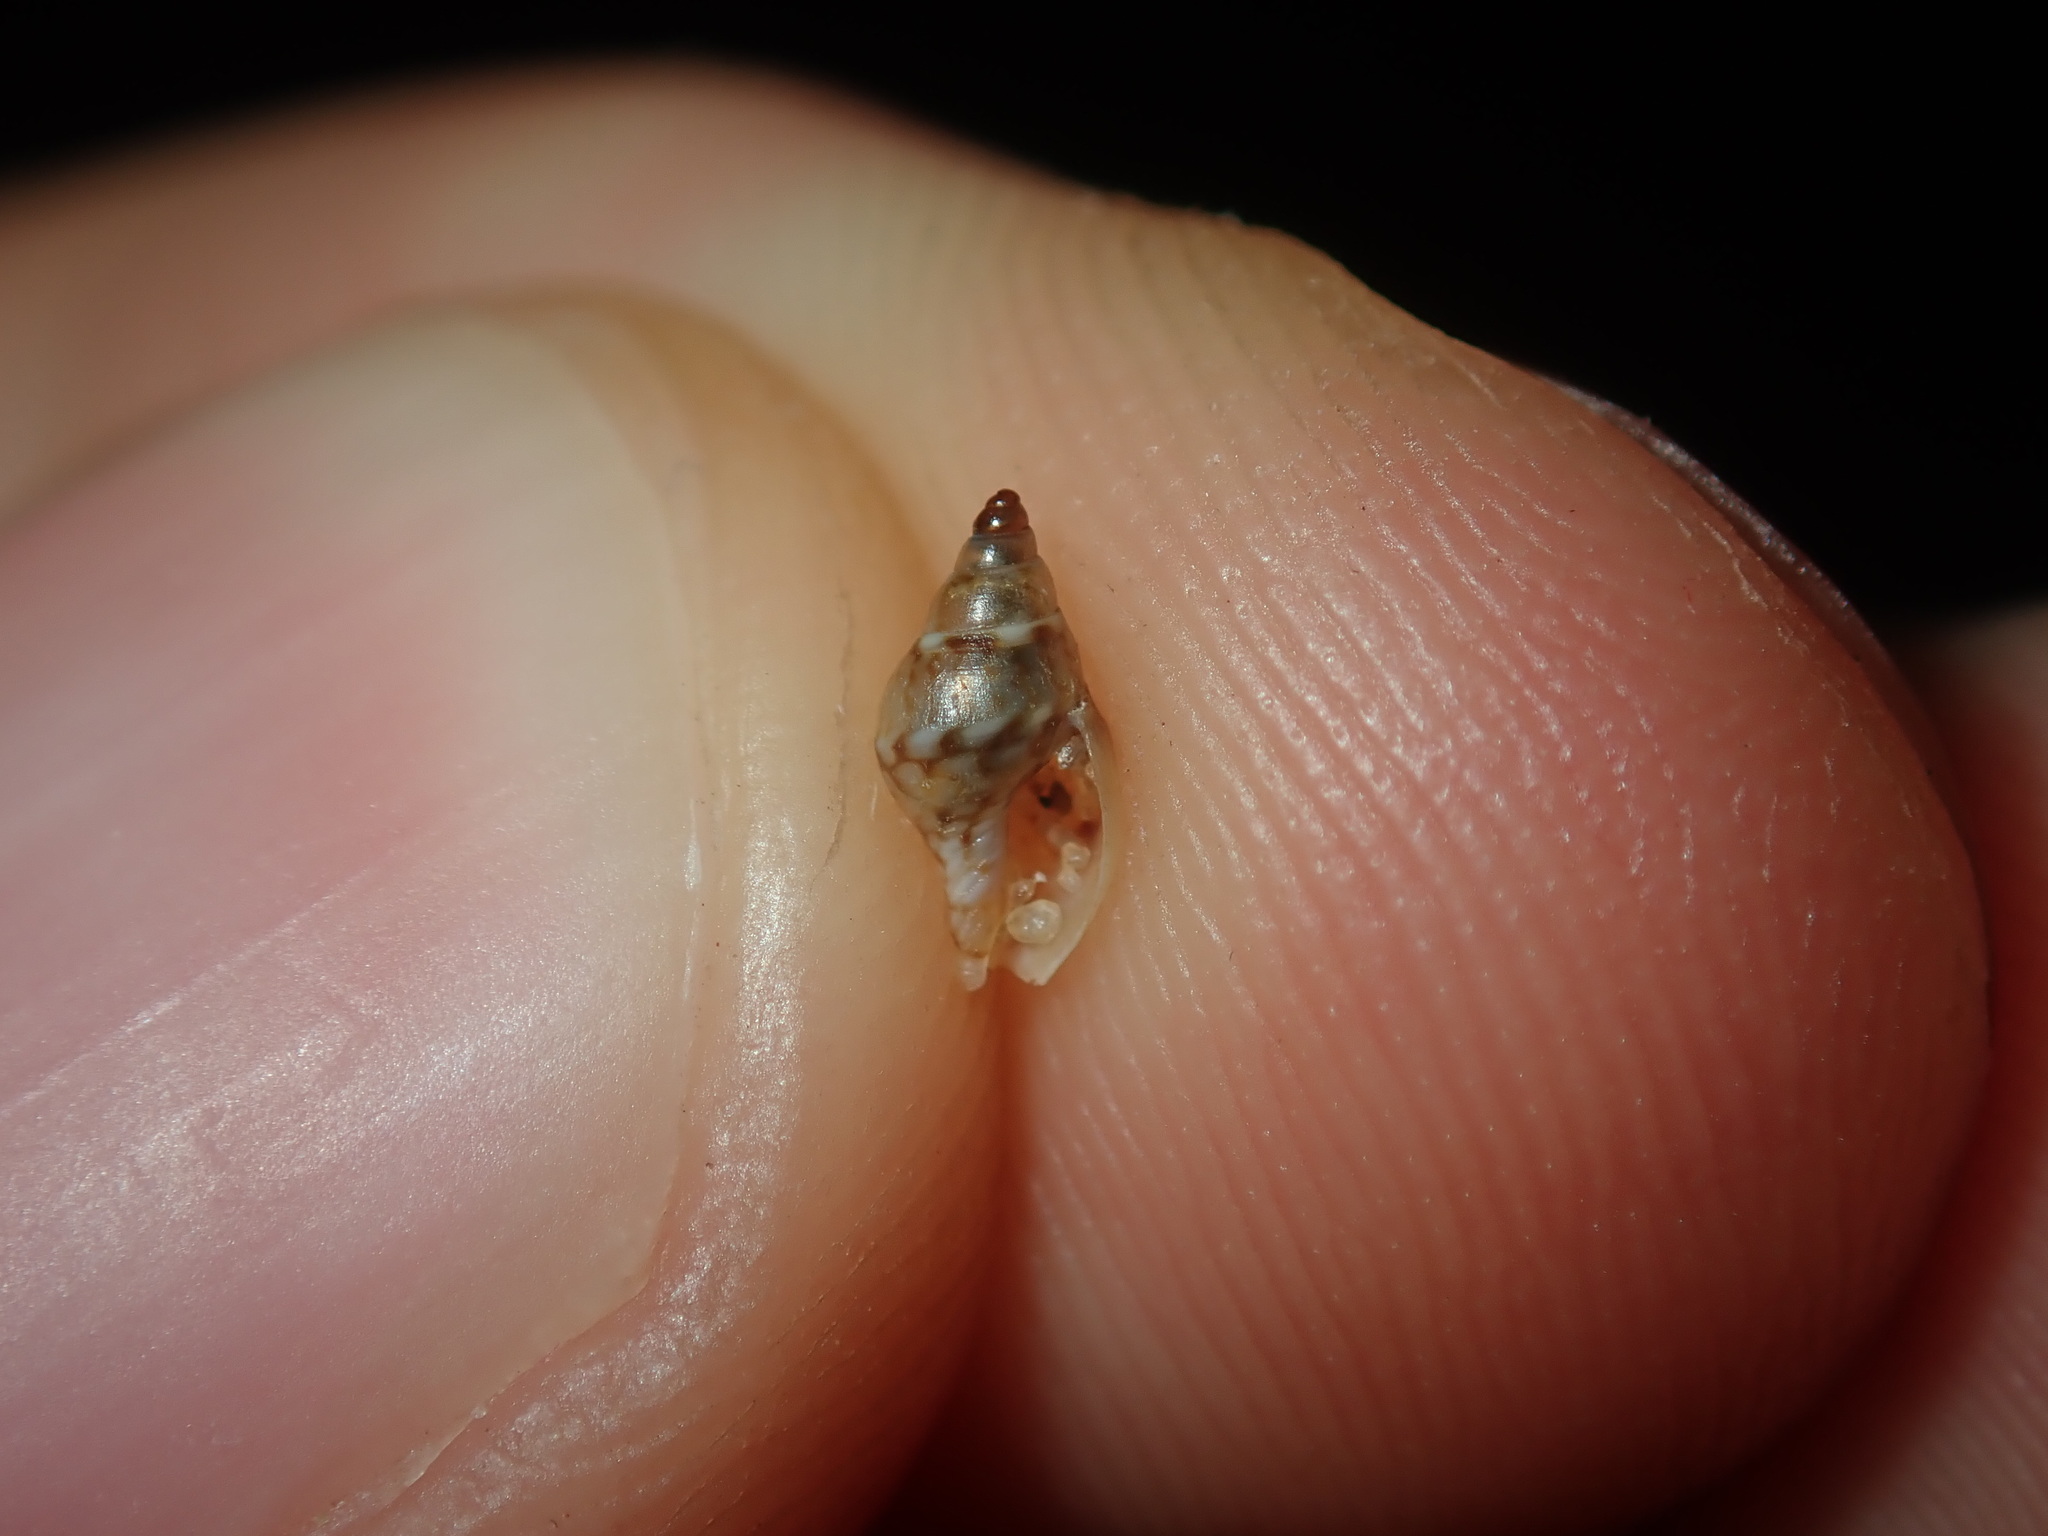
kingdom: Animalia
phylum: Mollusca
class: Gastropoda
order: Neogastropoda
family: Columbellidae
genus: Pseudamycla
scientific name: Pseudamycla dermestoidea
